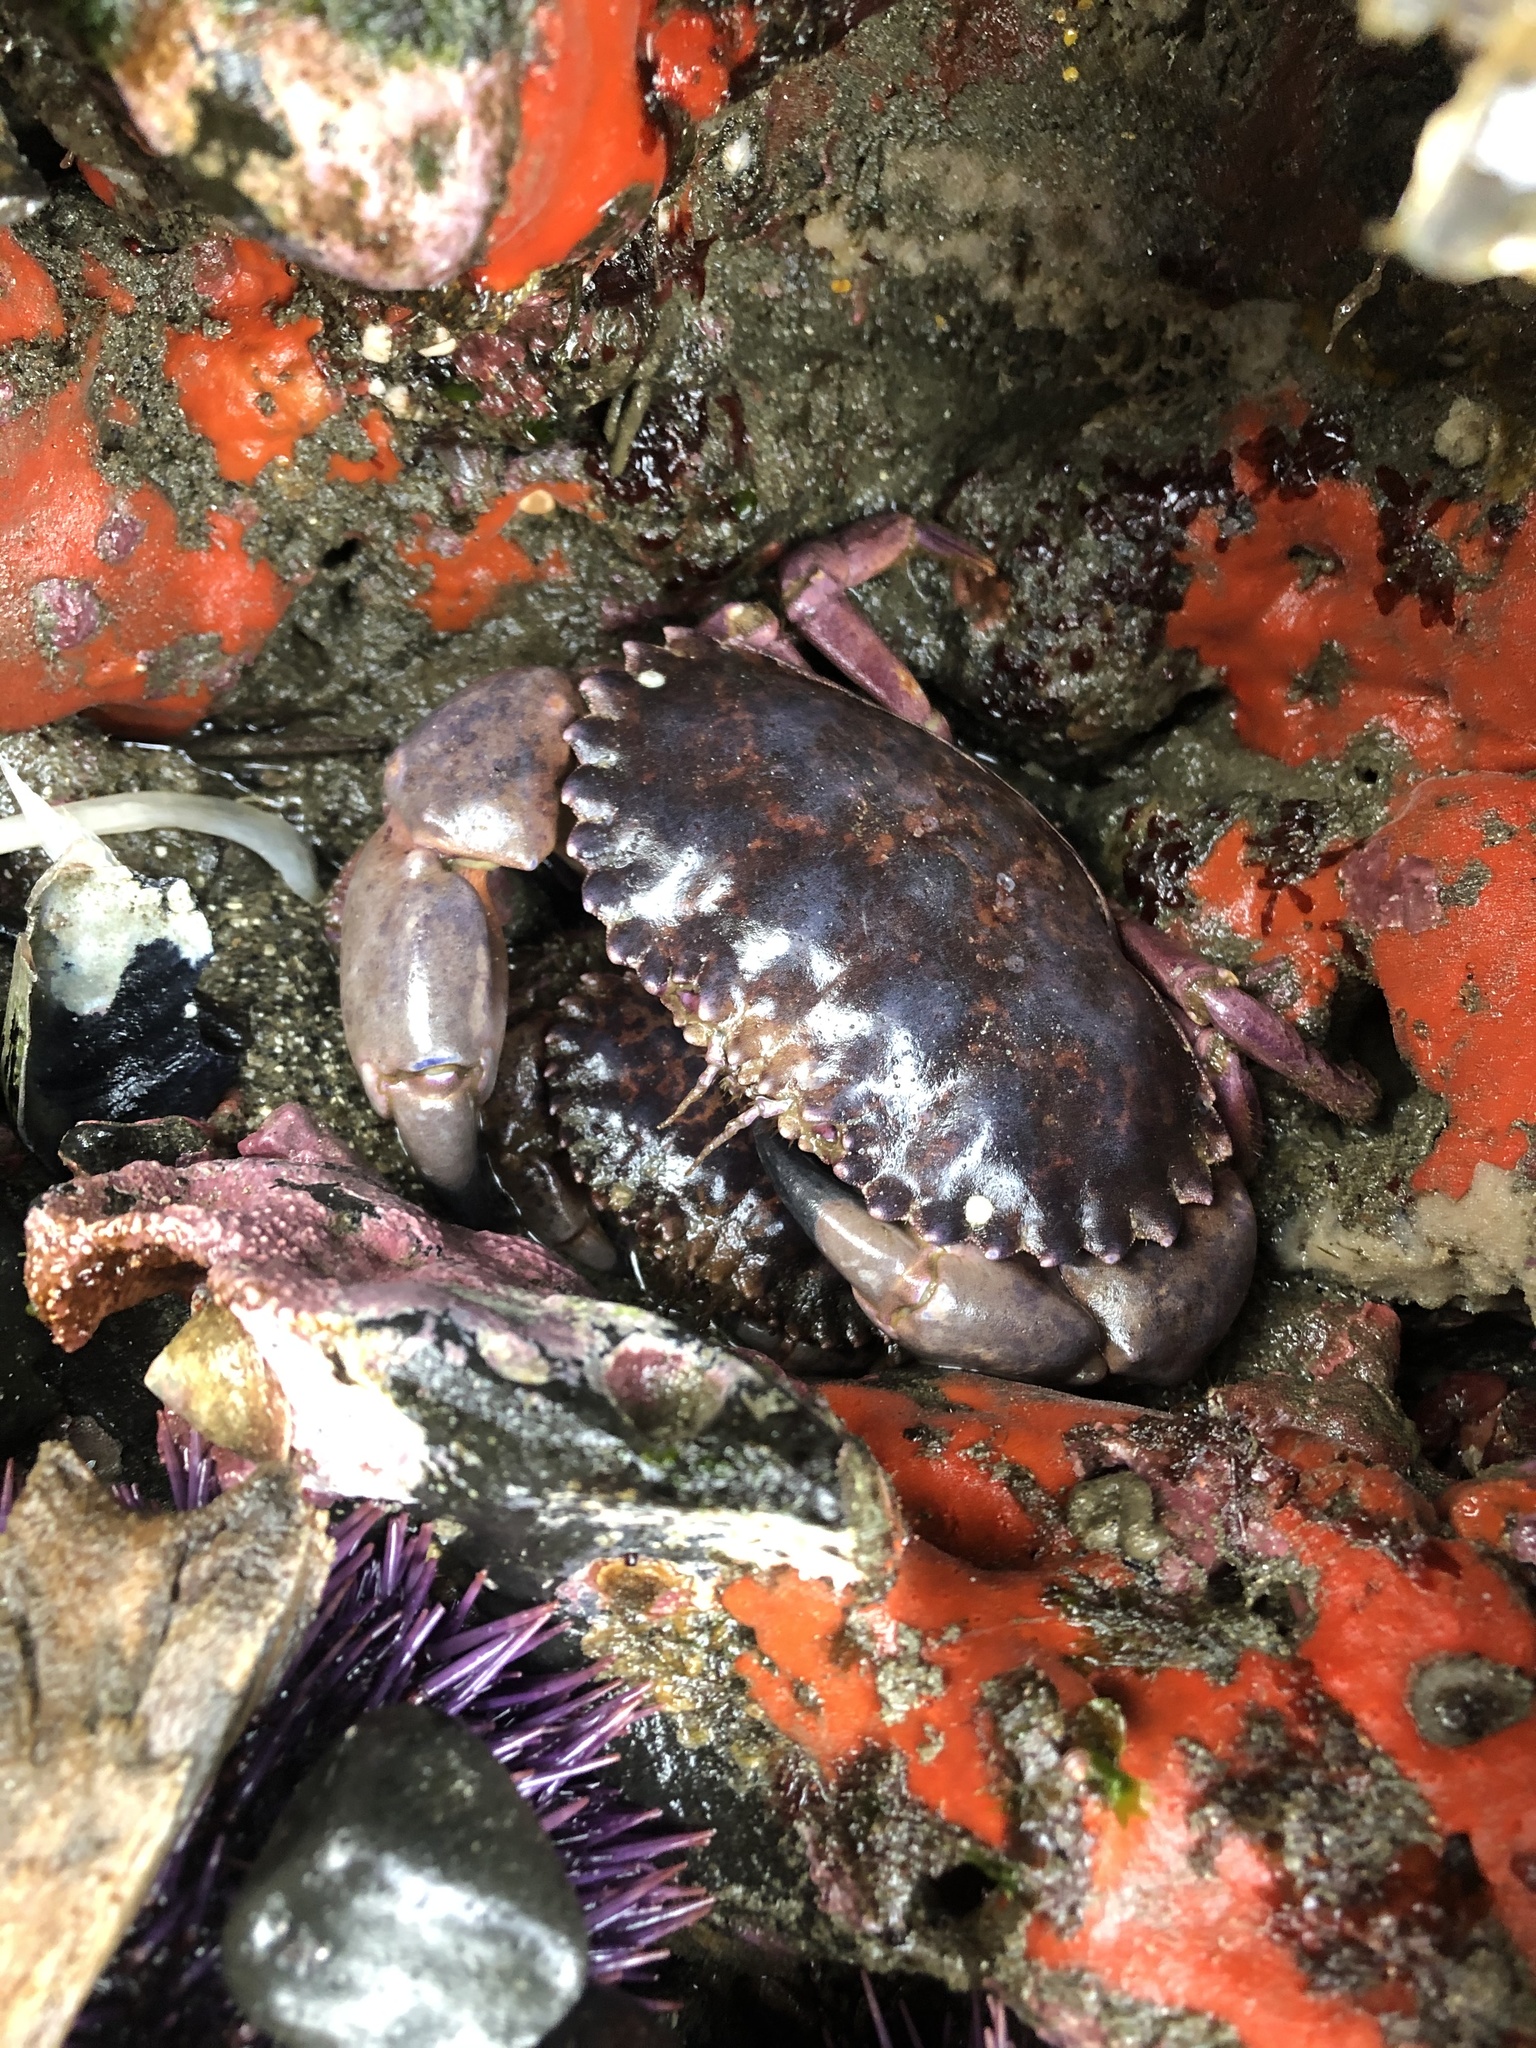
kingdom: Animalia
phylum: Arthropoda
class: Malacostraca
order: Decapoda
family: Cancridae
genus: Romaleon
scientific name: Romaleon antennarium
